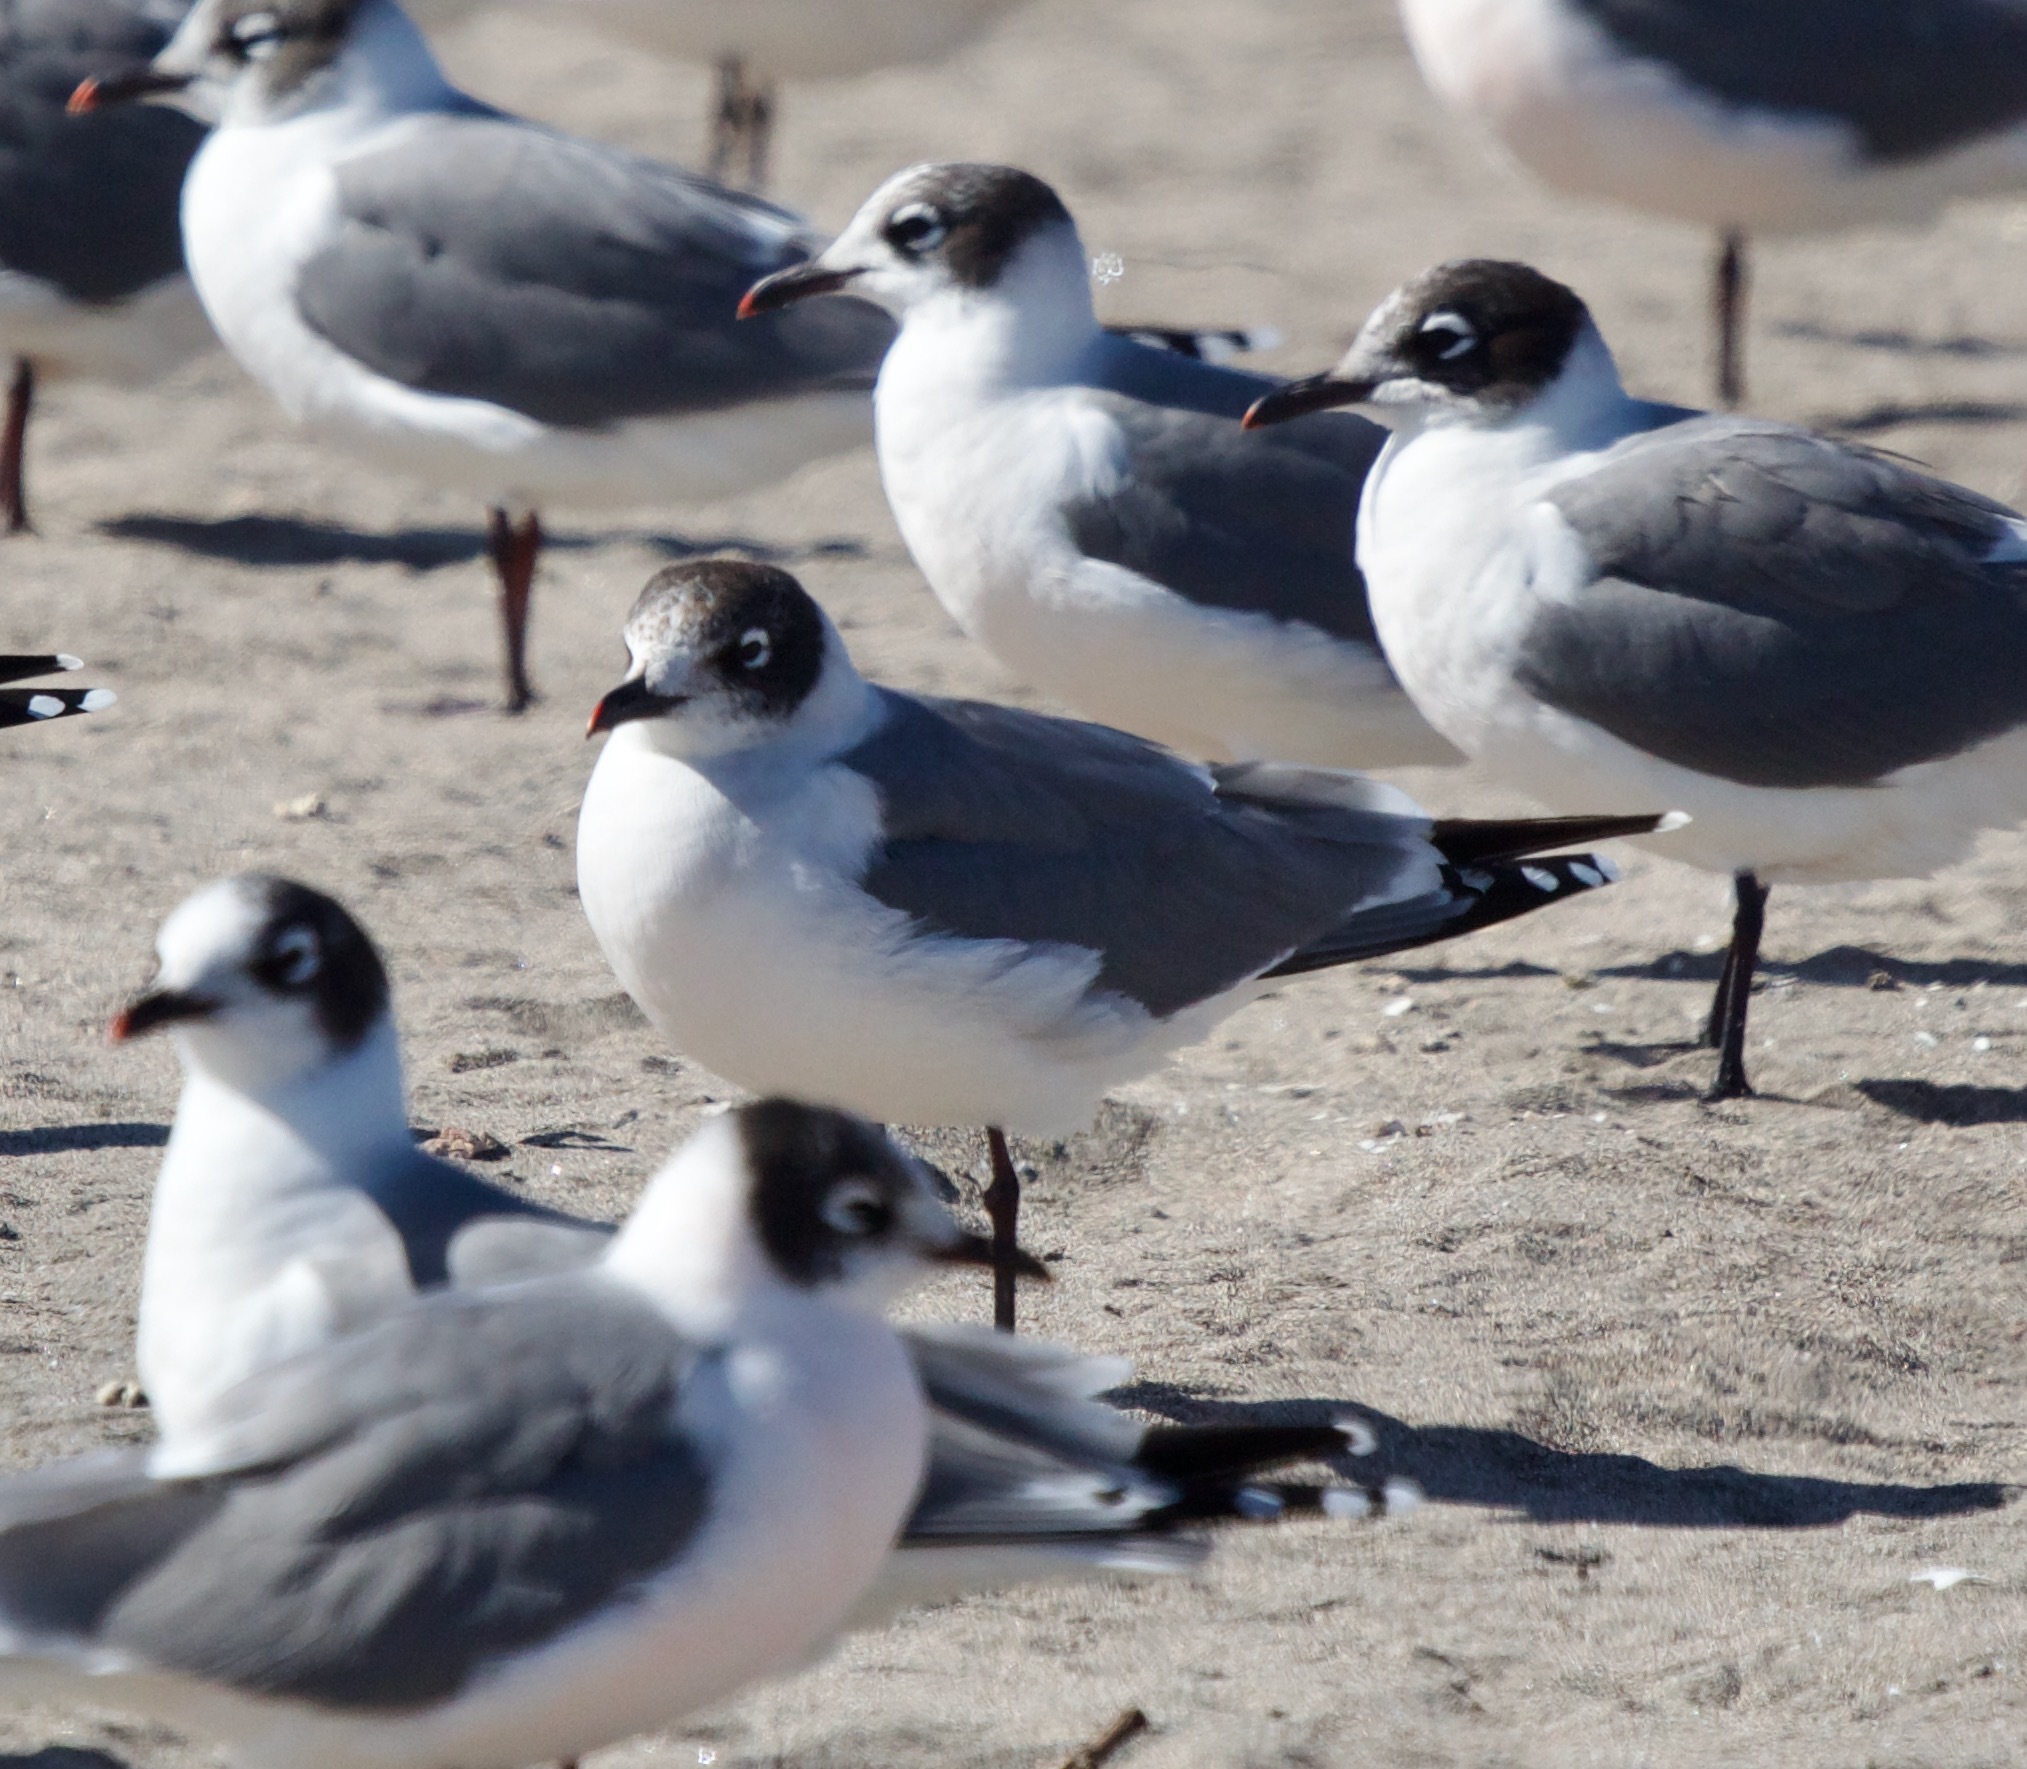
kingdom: Animalia
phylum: Chordata
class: Aves
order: Charadriiformes
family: Laridae
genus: Leucophaeus
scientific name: Leucophaeus pipixcan
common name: Franklin's gull
